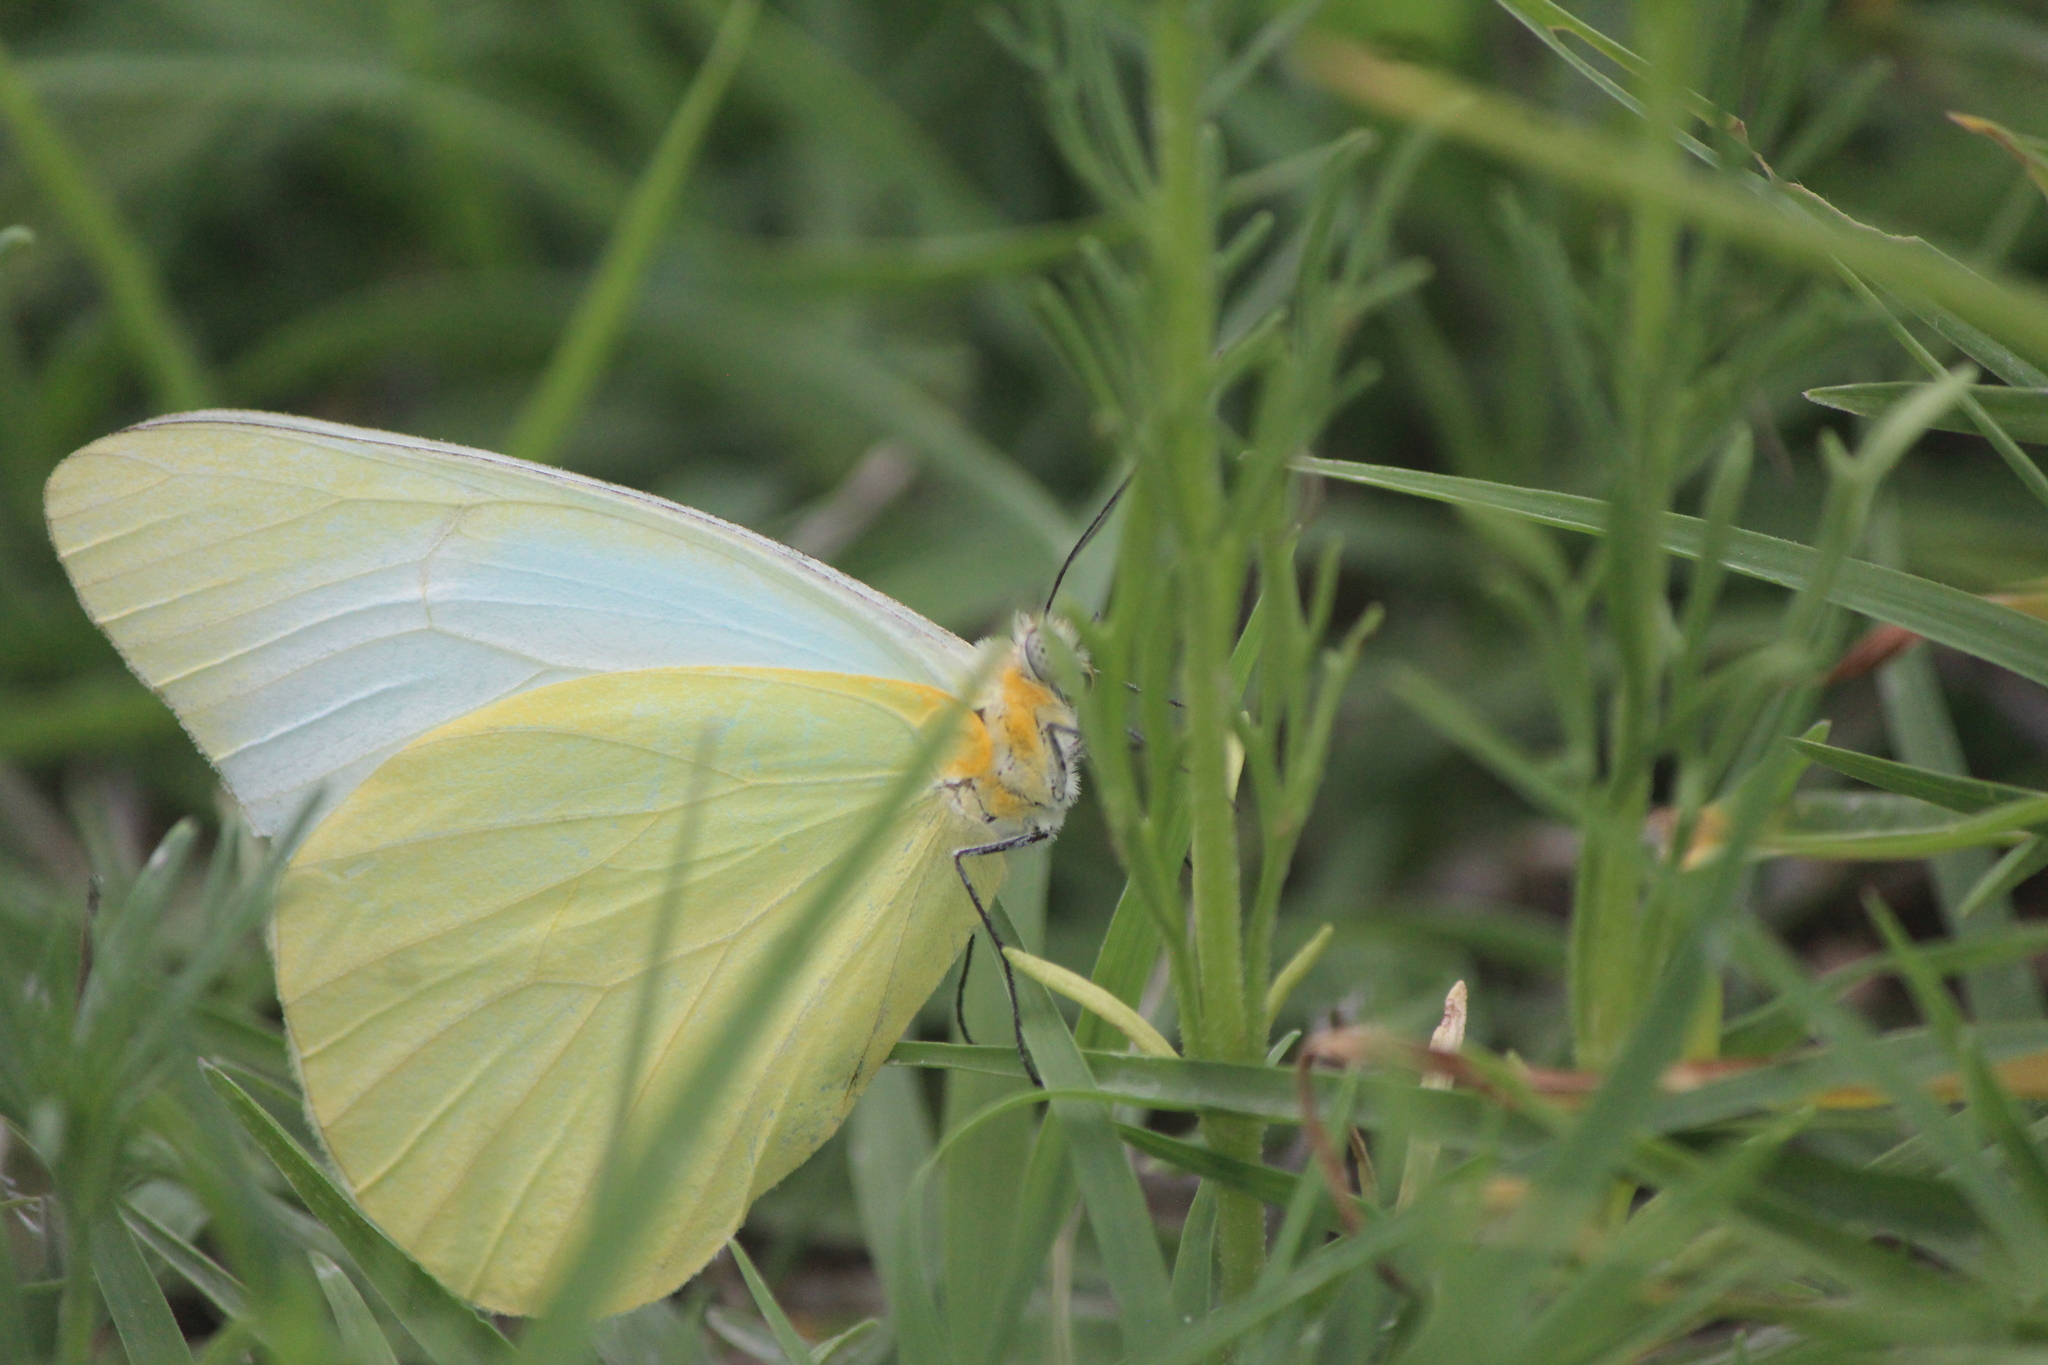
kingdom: Animalia
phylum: Arthropoda
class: Insecta
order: Lepidoptera
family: Pieridae
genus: Melete
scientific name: Melete lycimnia
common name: Common melwhite
